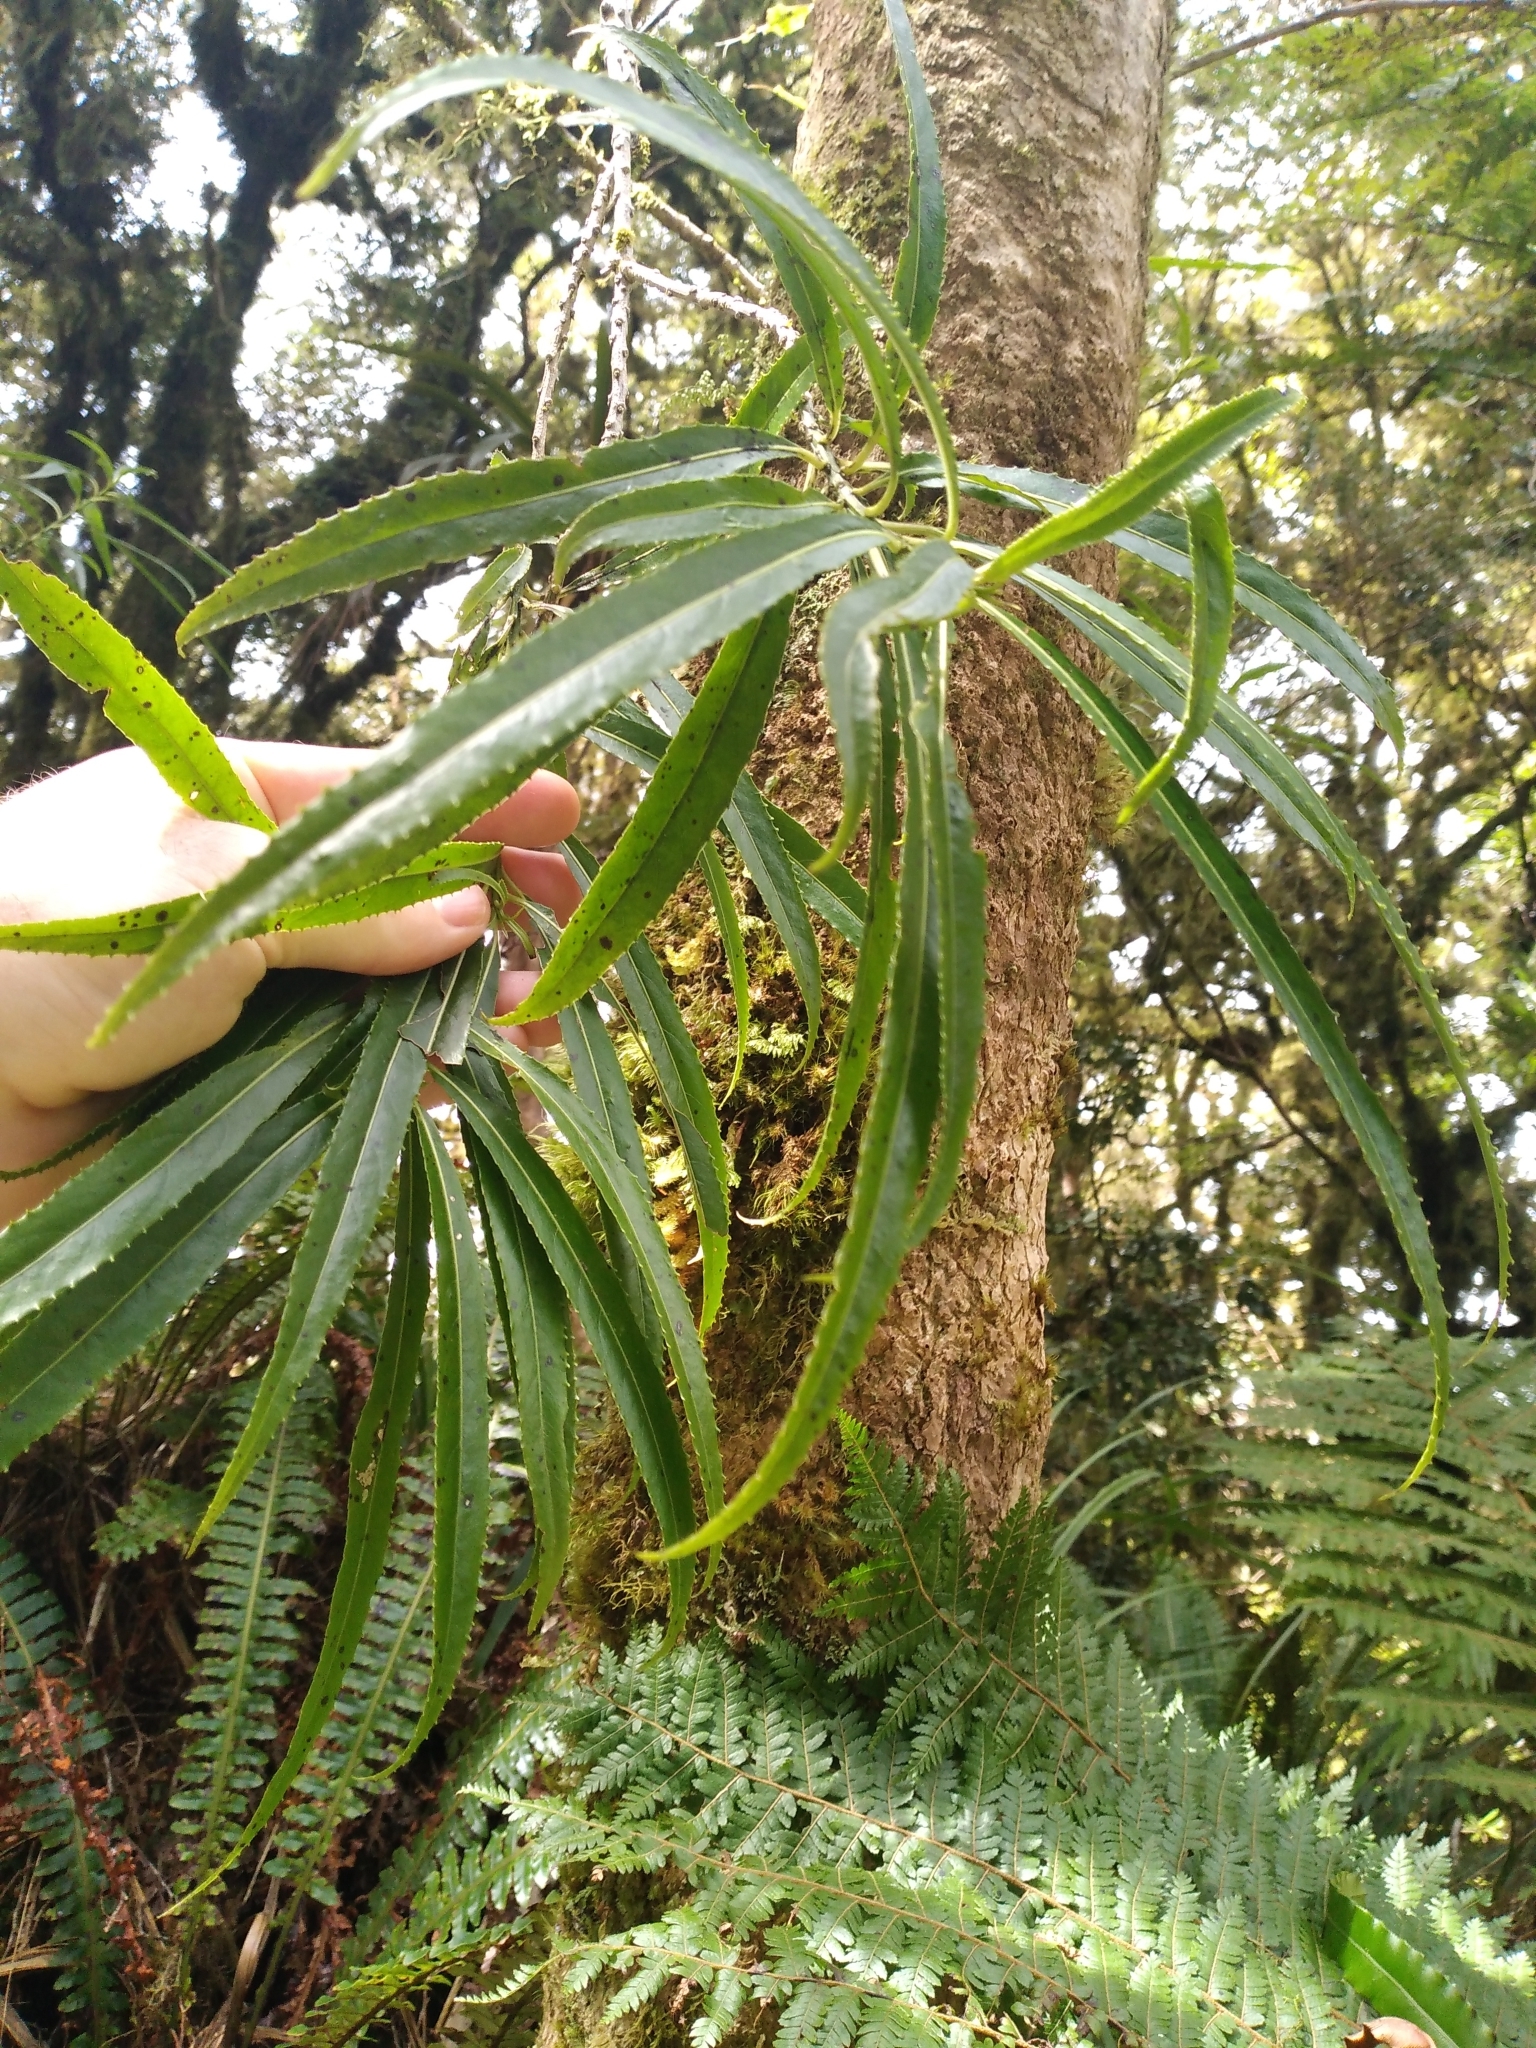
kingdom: Plantae
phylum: Tracheophyta
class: Magnoliopsida
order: Malpighiales
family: Violaceae
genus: Melicytus
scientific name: Melicytus lanceolatus
